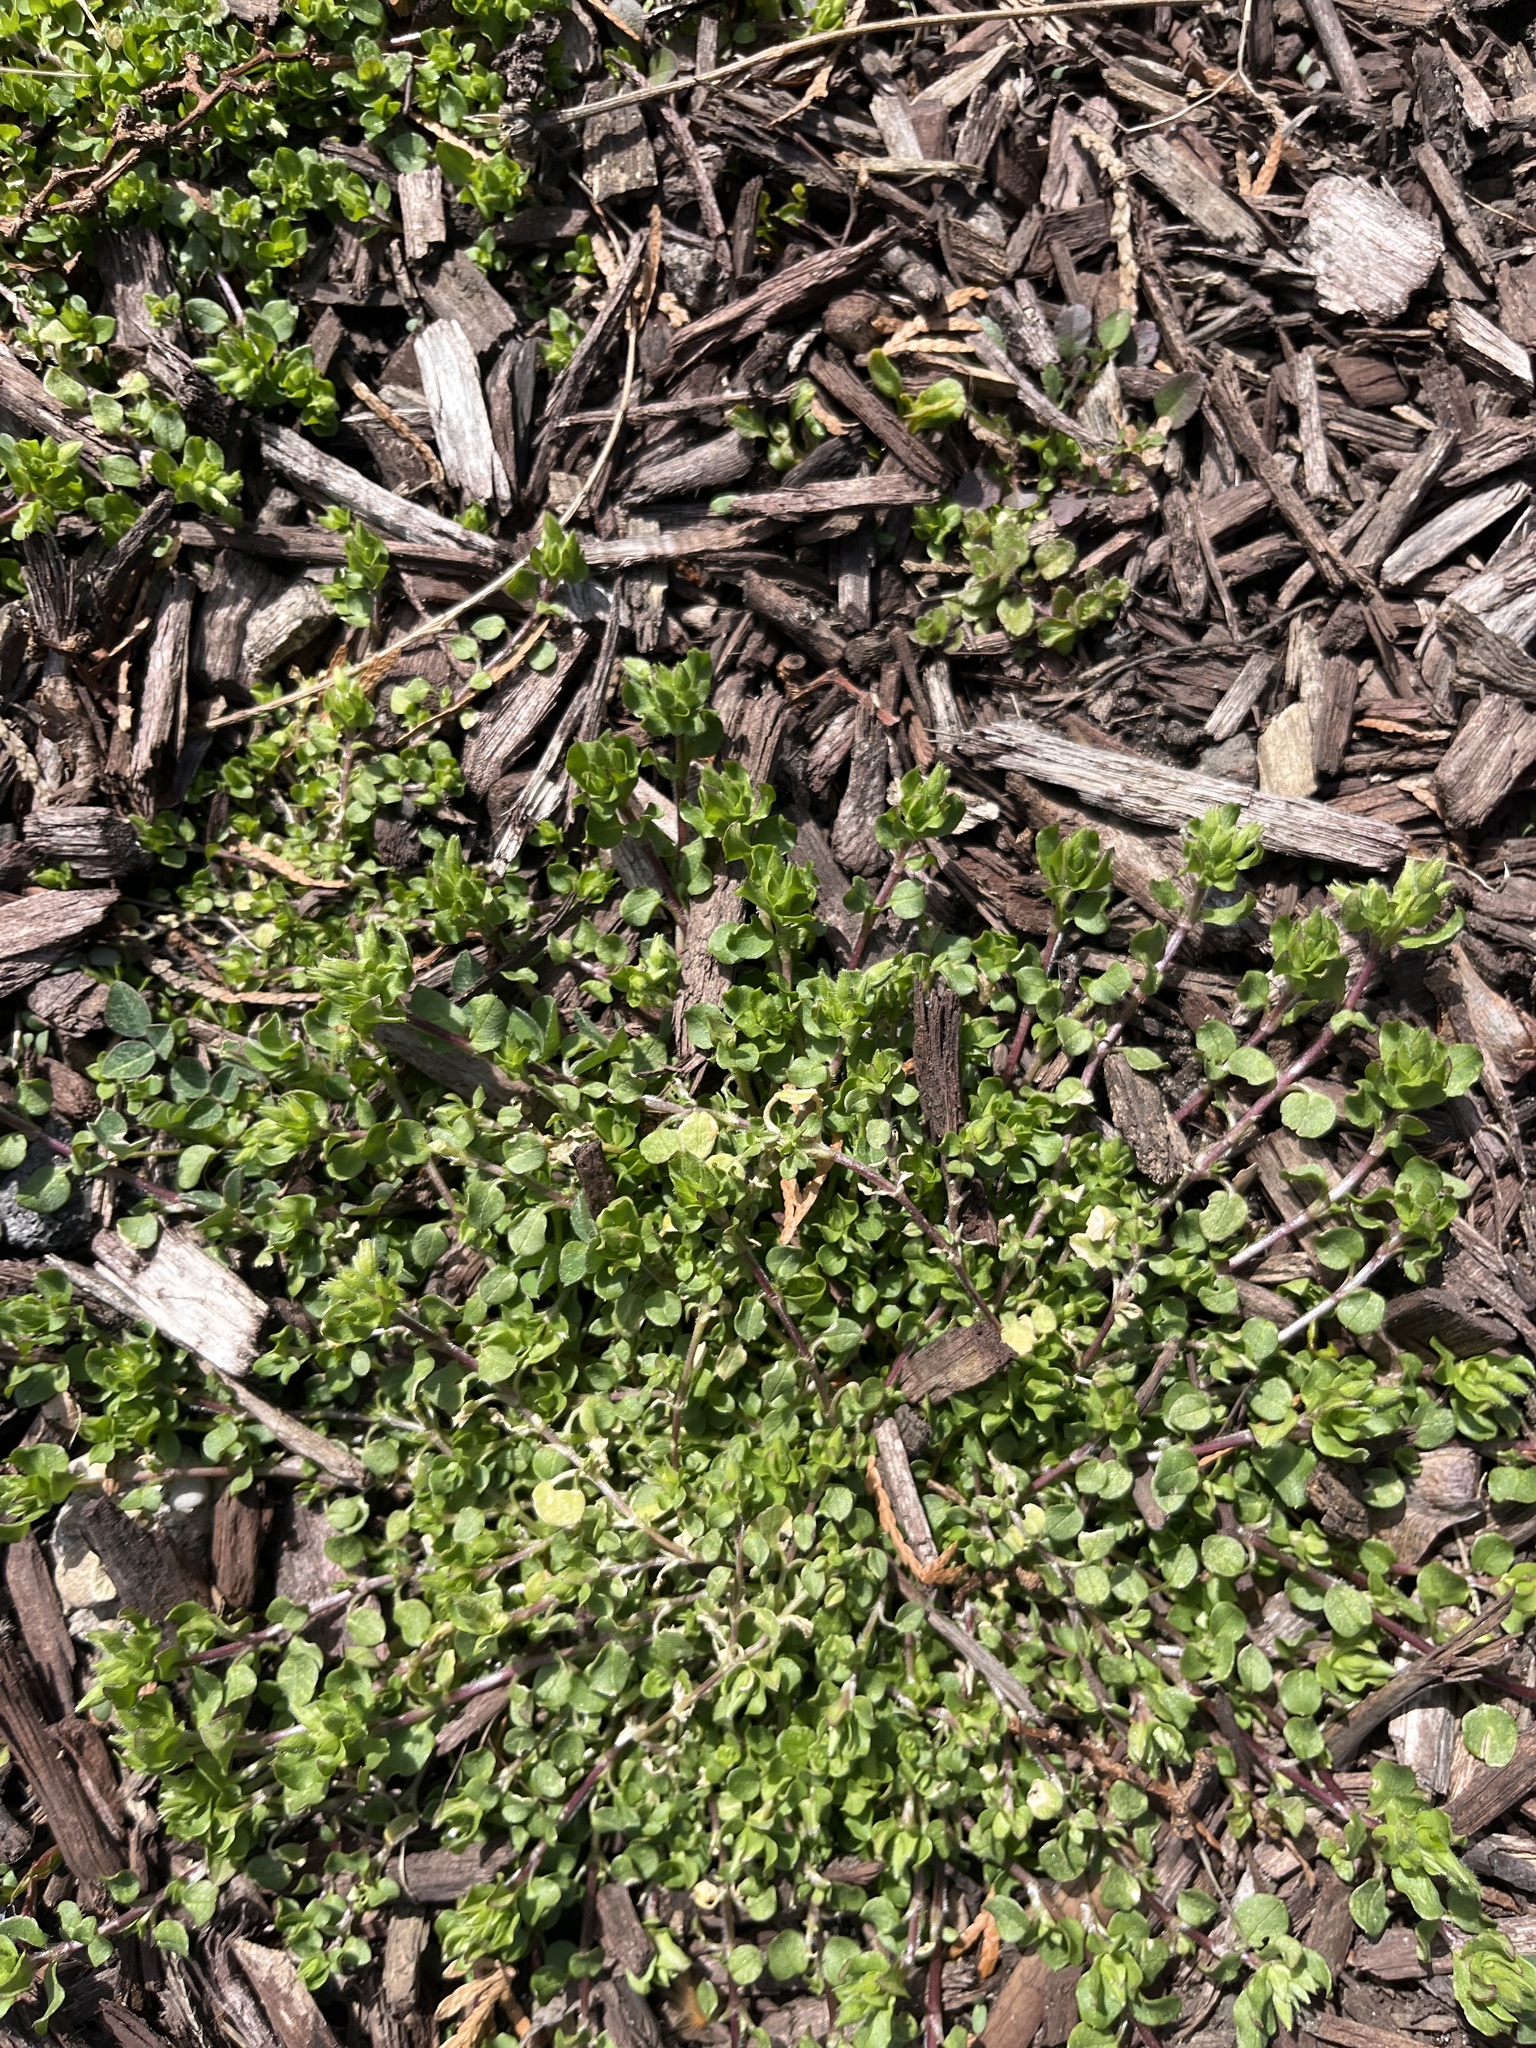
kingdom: Plantae
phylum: Tracheophyta
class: Magnoliopsida
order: Caryophyllales
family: Caryophyllaceae
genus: Stellaria
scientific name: Stellaria media
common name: Common chickweed
